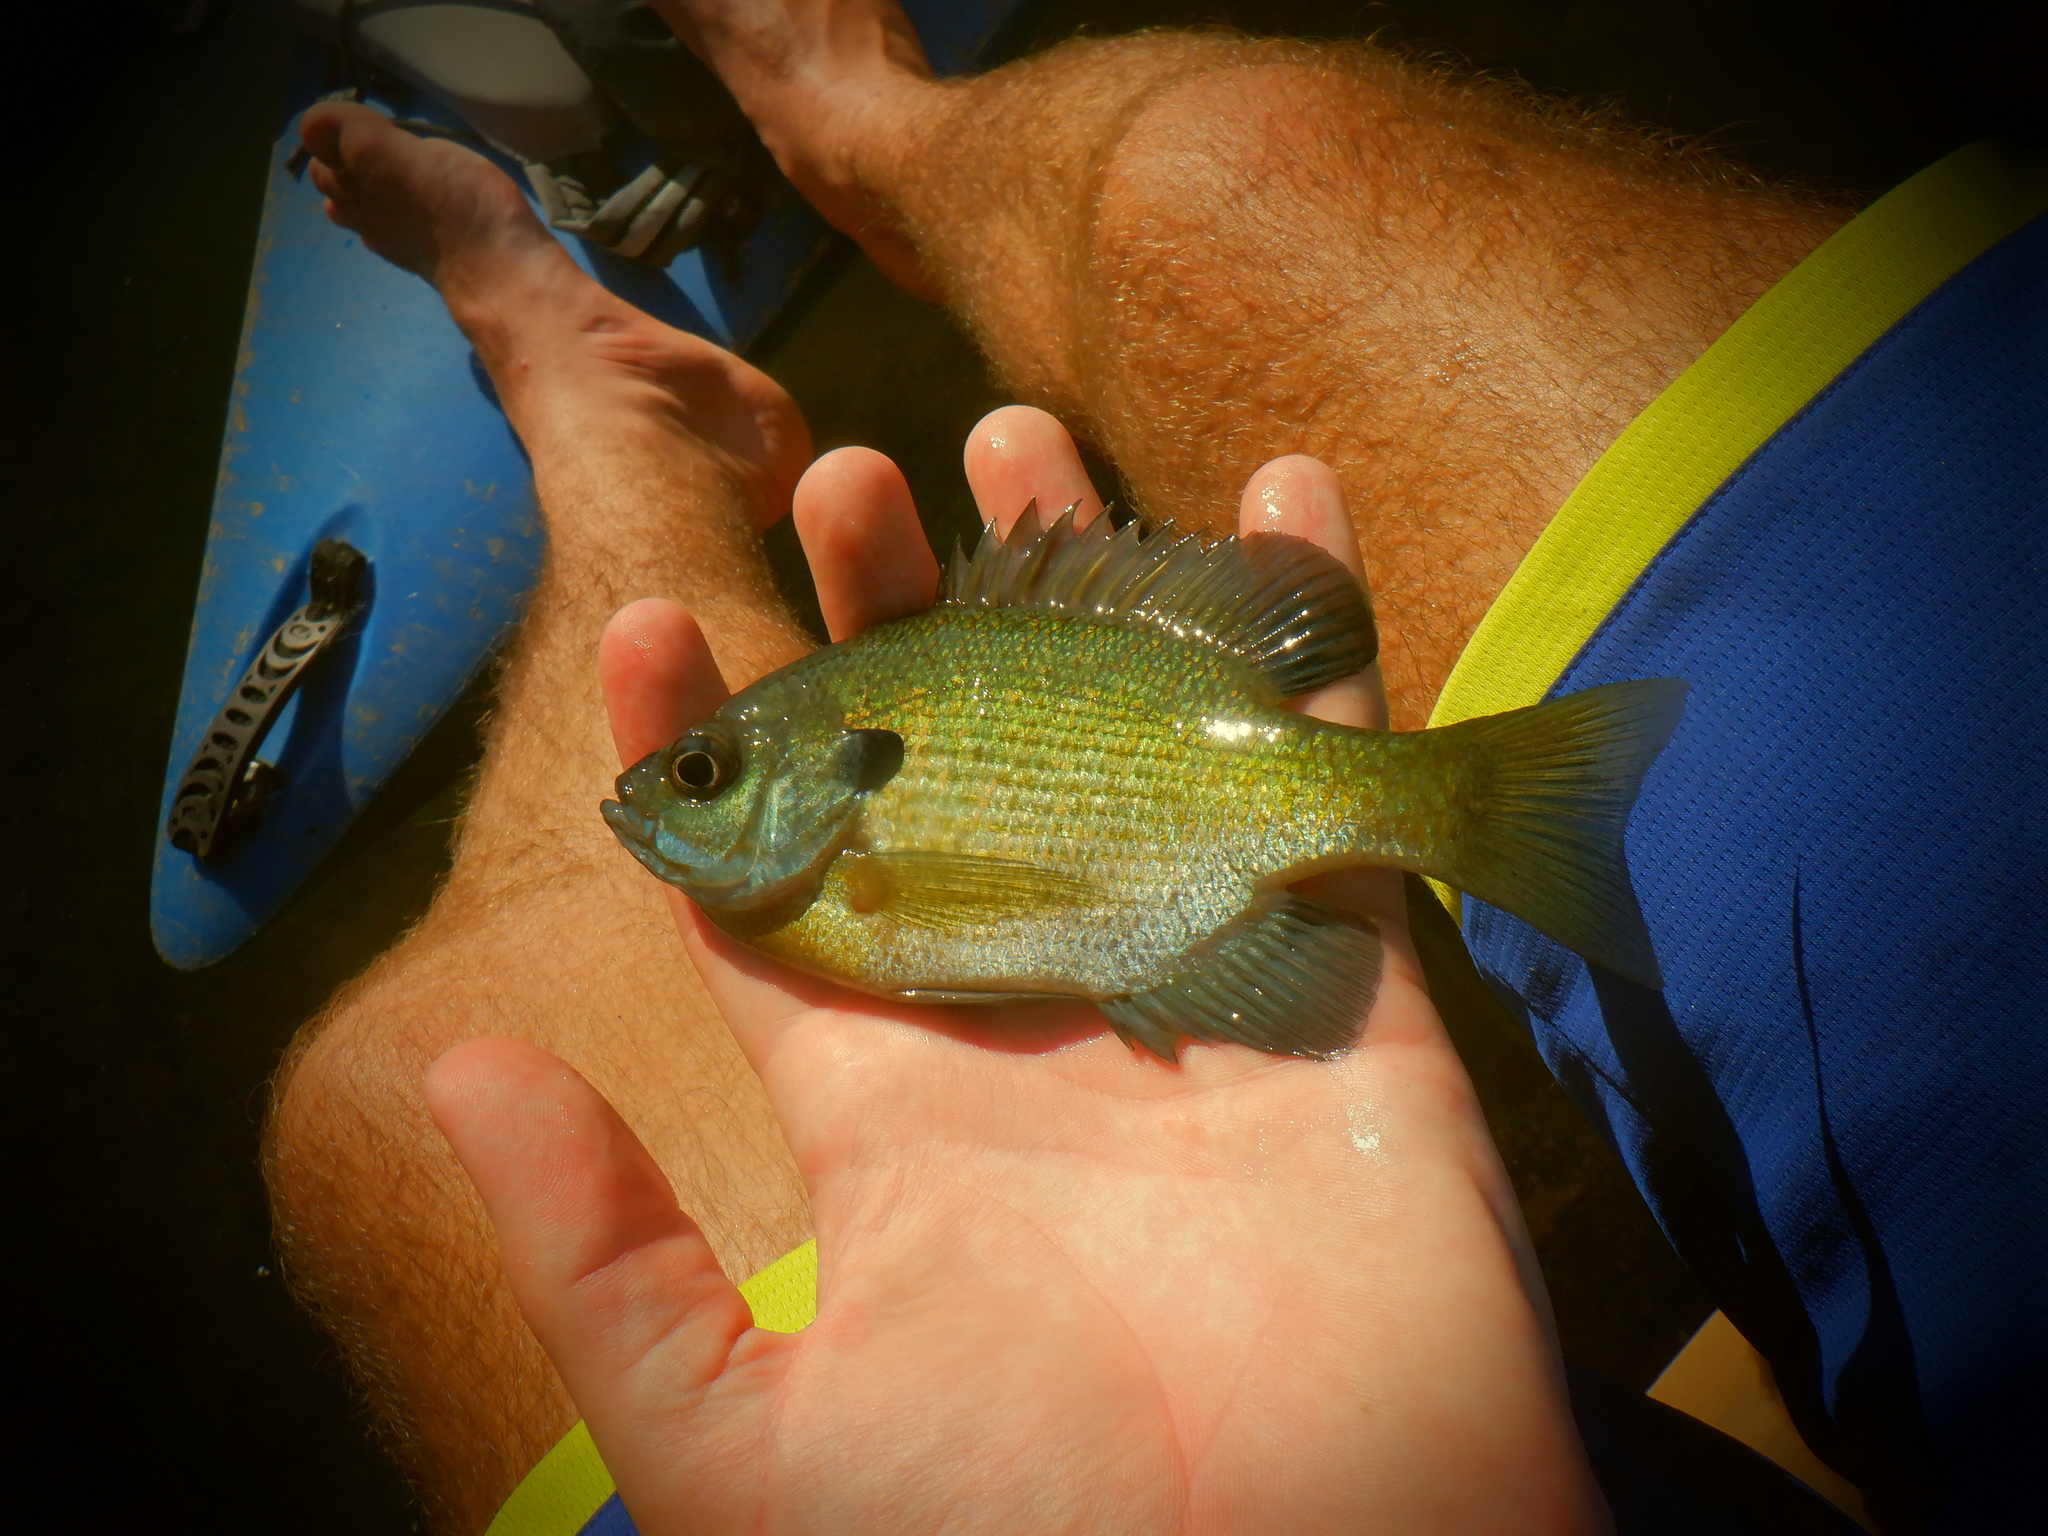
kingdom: Animalia
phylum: Chordata
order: Perciformes
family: Centrarchidae
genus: Lepomis
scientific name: Lepomis macrochirus
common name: Bluegill
